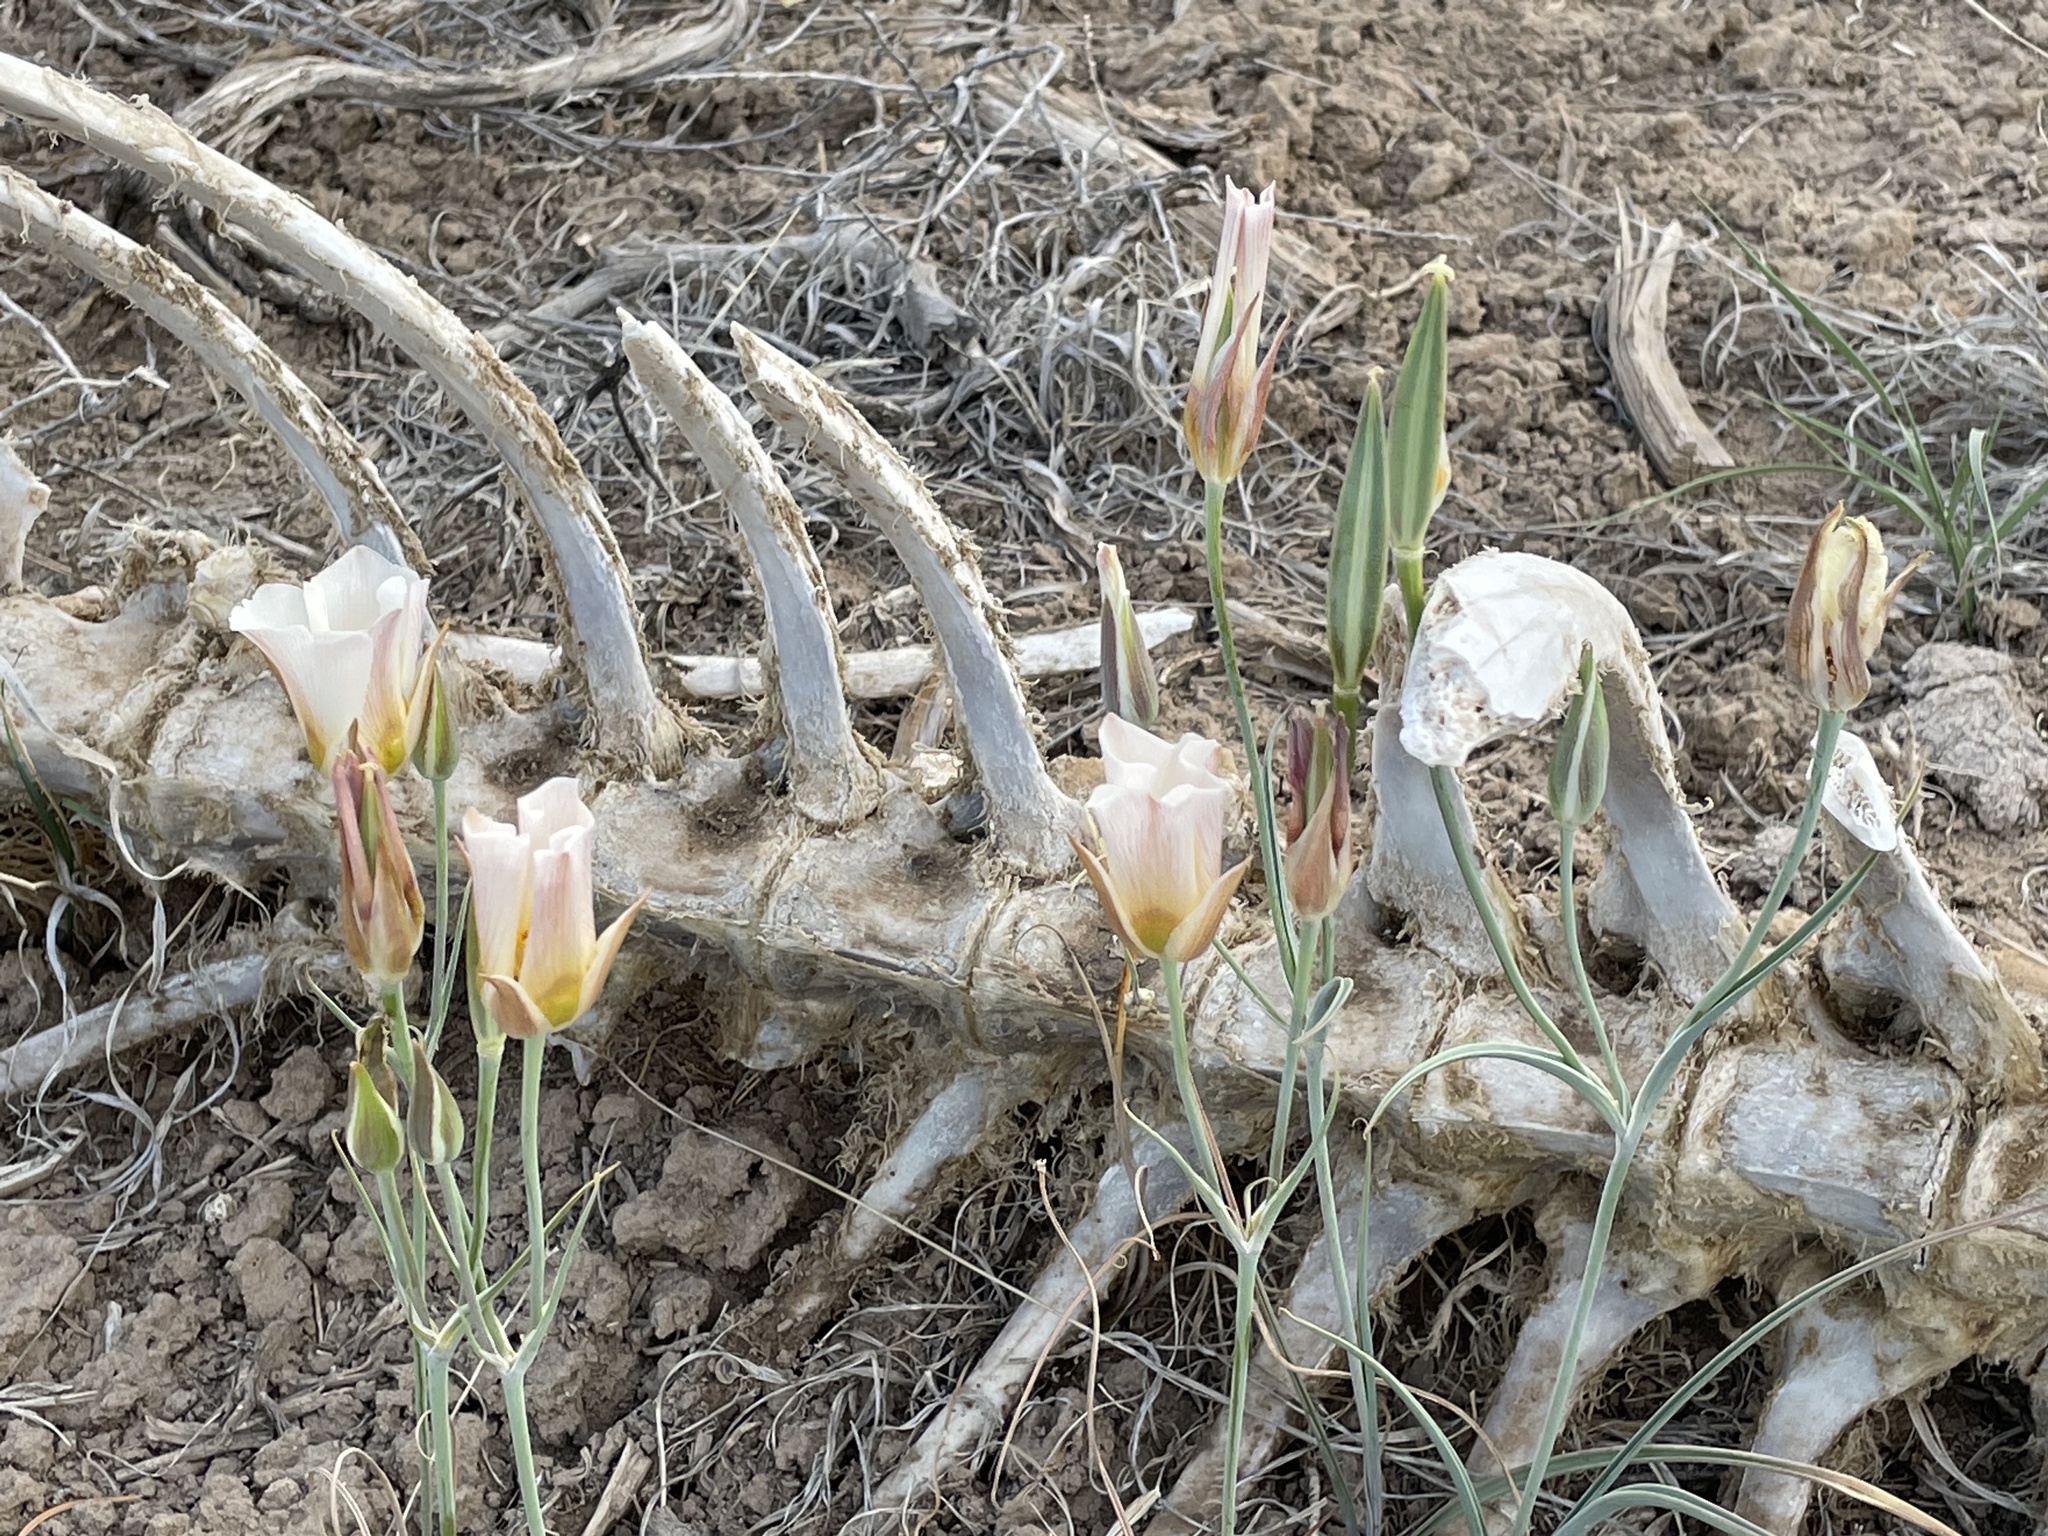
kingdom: Plantae
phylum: Tracheophyta
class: Liliopsida
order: Liliales
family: Liliaceae
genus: Calochortus
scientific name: Calochortus nuttallii
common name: Sego-lily
